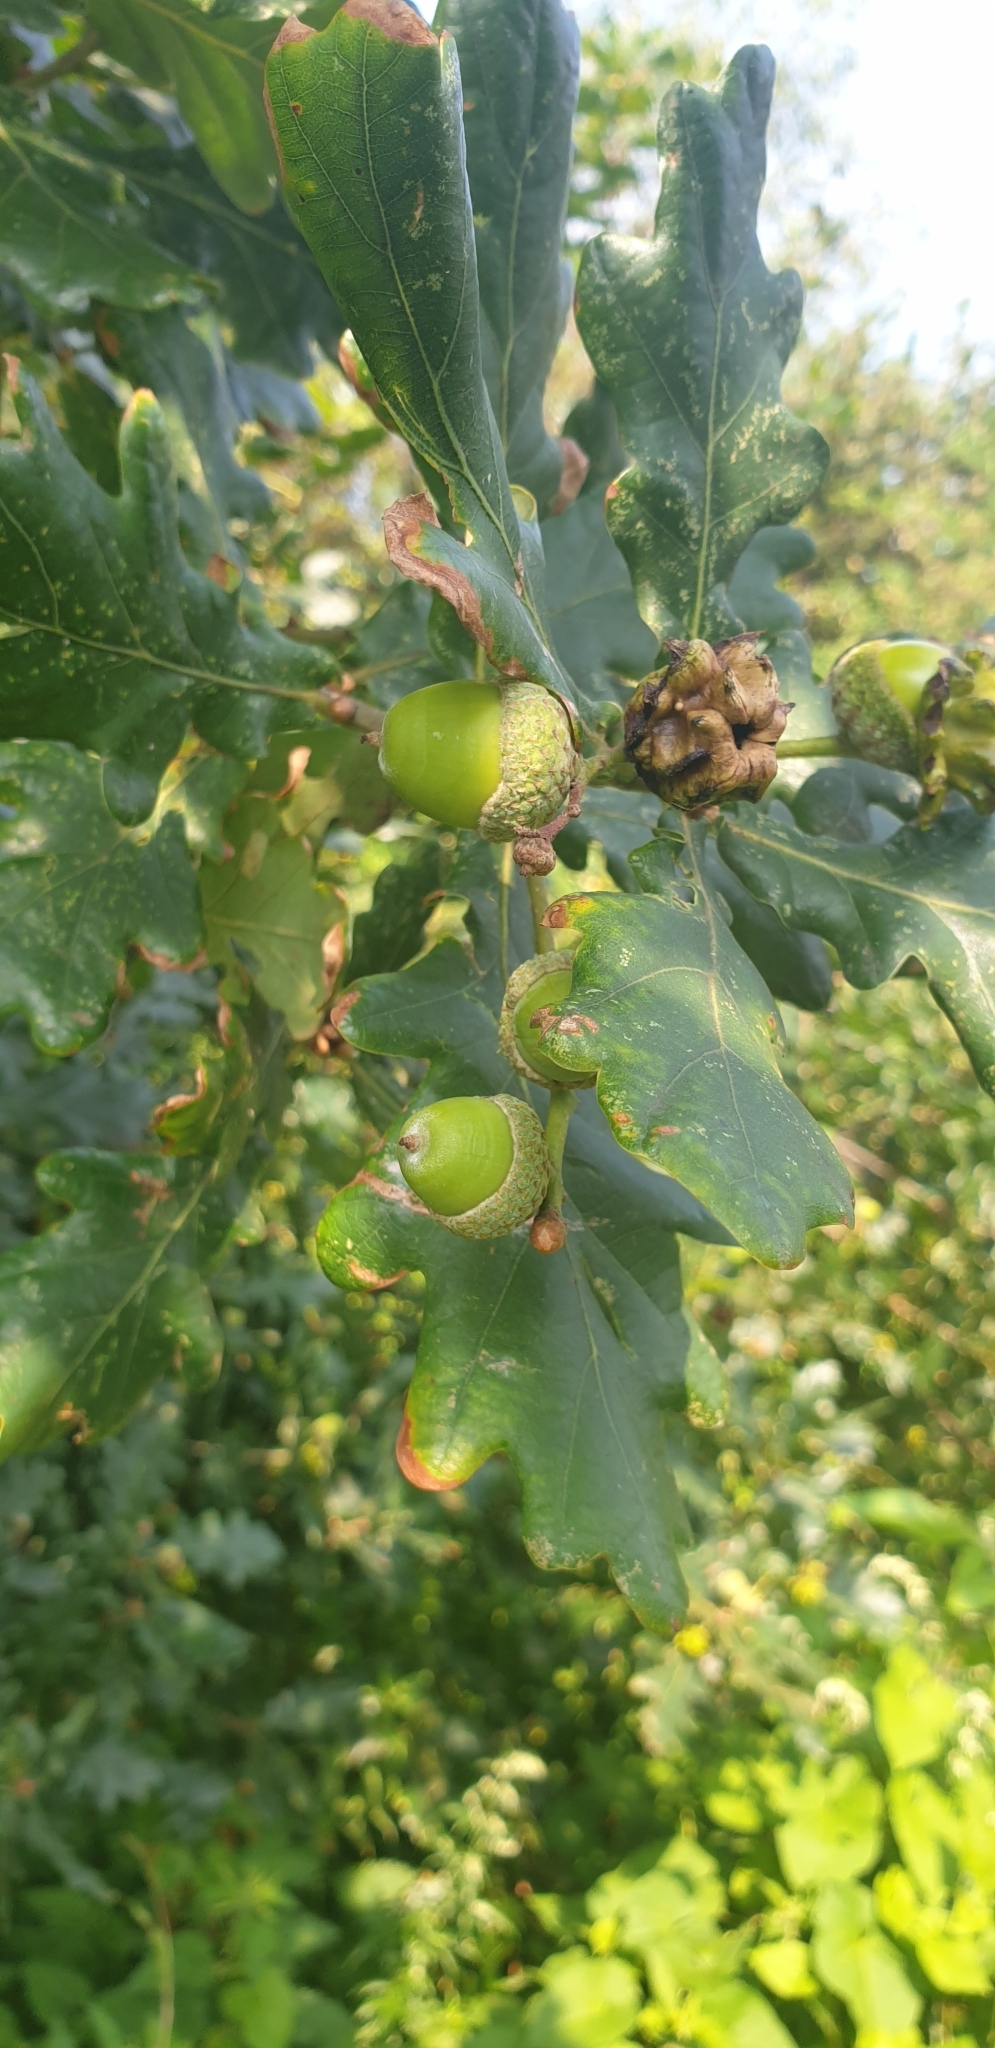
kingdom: Plantae
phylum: Tracheophyta
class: Magnoliopsida
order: Fagales
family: Fagaceae
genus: Quercus
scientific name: Quercus robur
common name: Pedunculate oak
